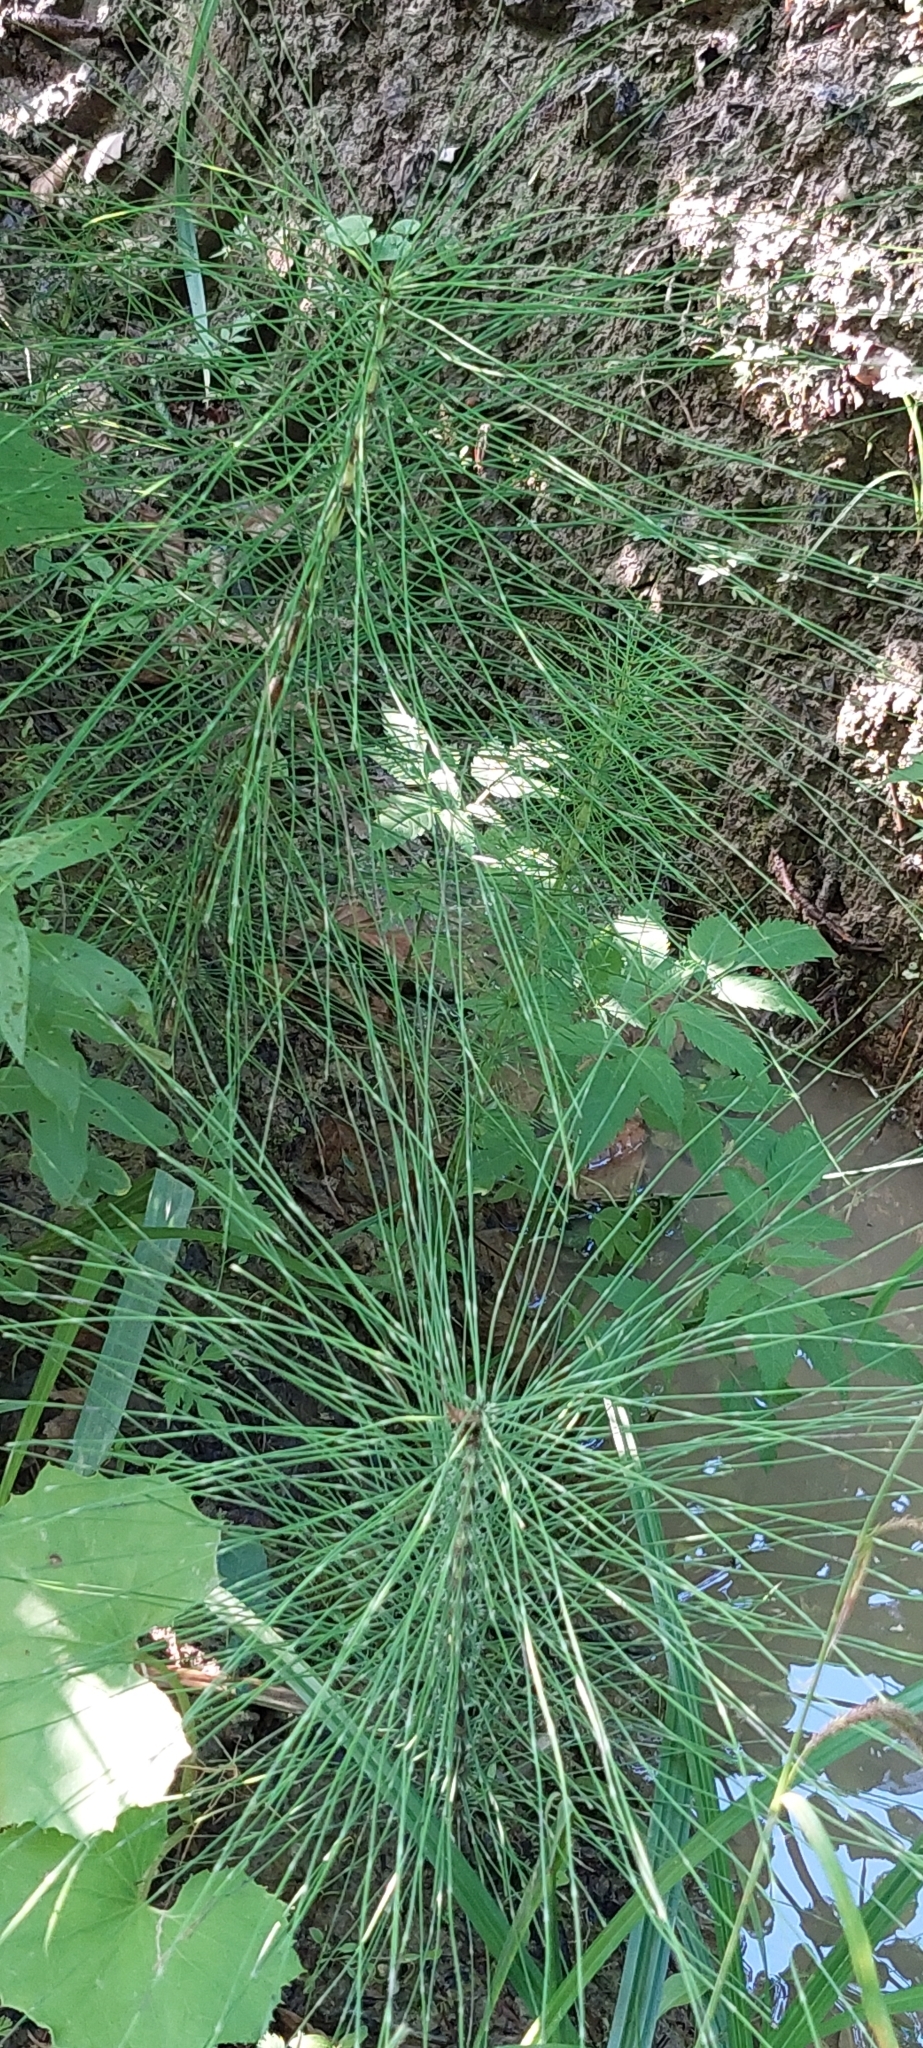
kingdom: Plantae
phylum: Tracheophyta
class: Polypodiopsida
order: Equisetales
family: Equisetaceae
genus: Equisetum
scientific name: Equisetum telmateia
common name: Great horsetail
